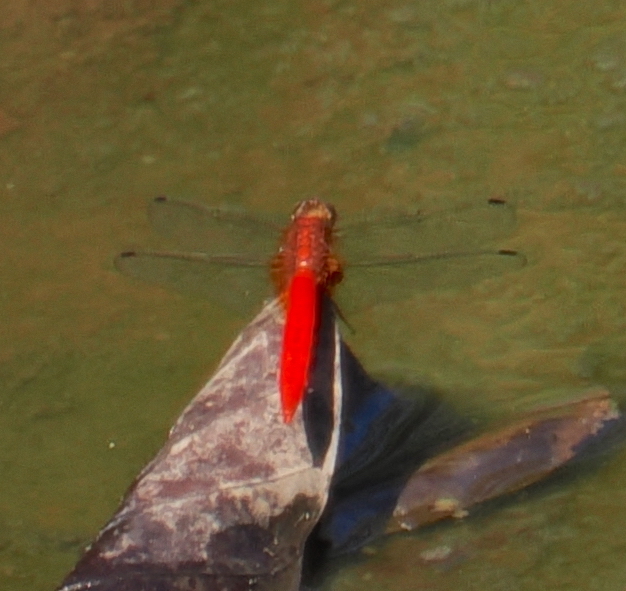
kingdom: Animalia
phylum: Arthropoda
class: Insecta
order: Odonata
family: Libellulidae
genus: Orthetrum
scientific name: Orthetrum testaceum
